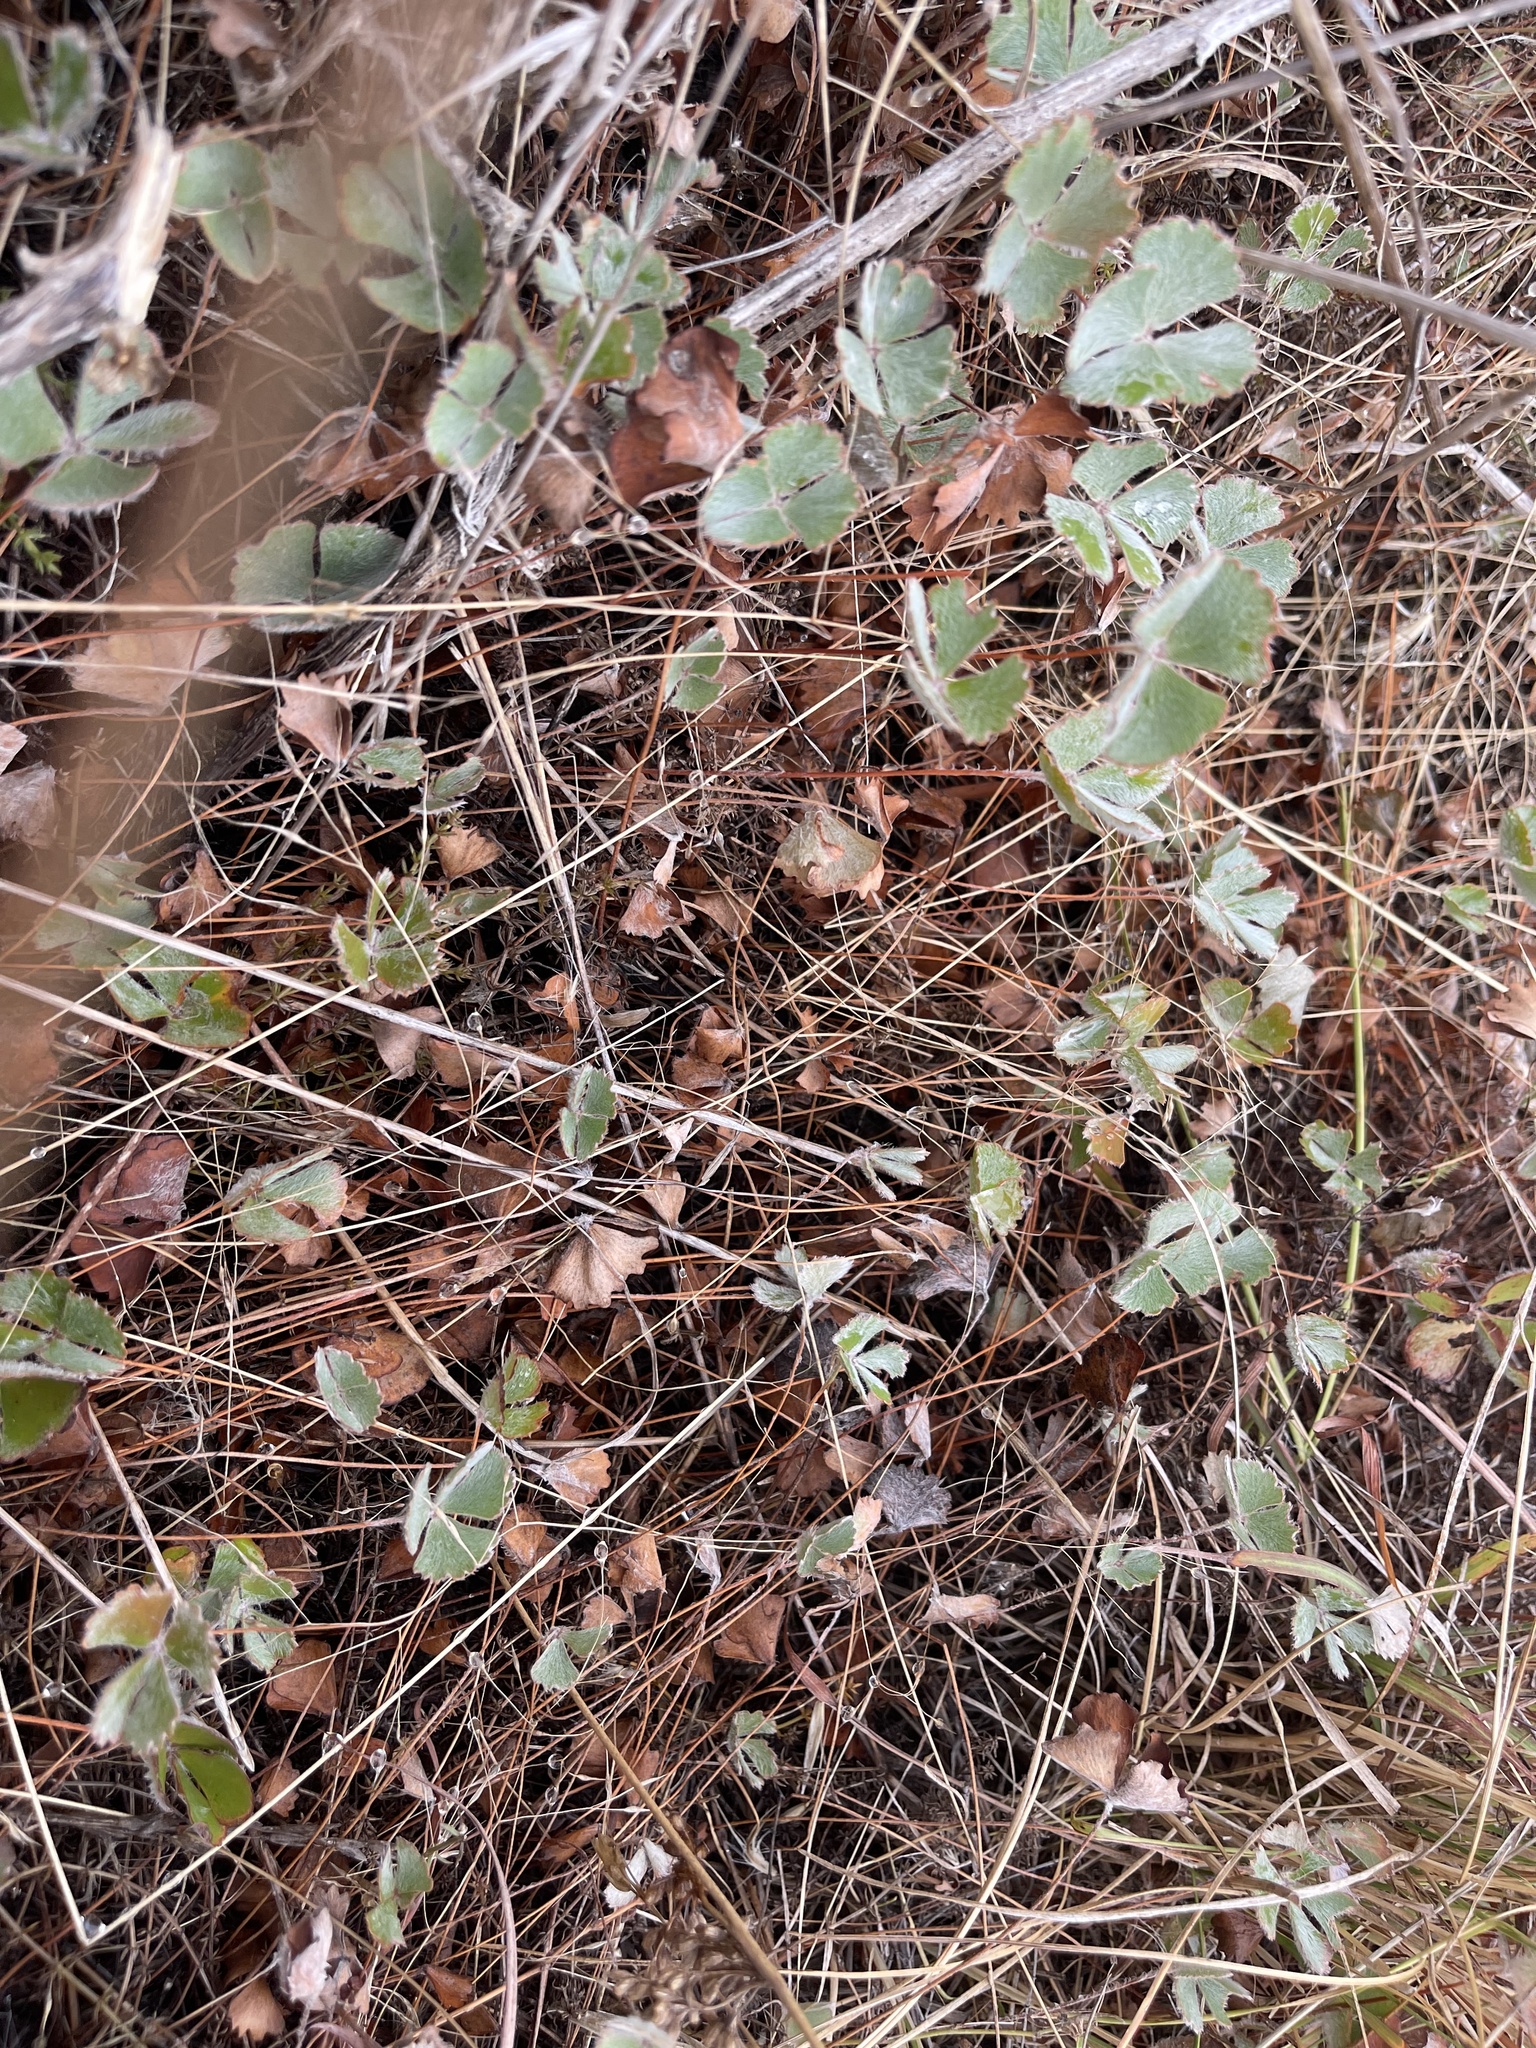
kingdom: Plantae
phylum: Tracheophyta
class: Polypodiopsida
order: Salviniales
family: Marsileaceae
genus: Marsilea
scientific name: Marsilea drummondii
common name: Nardoo
